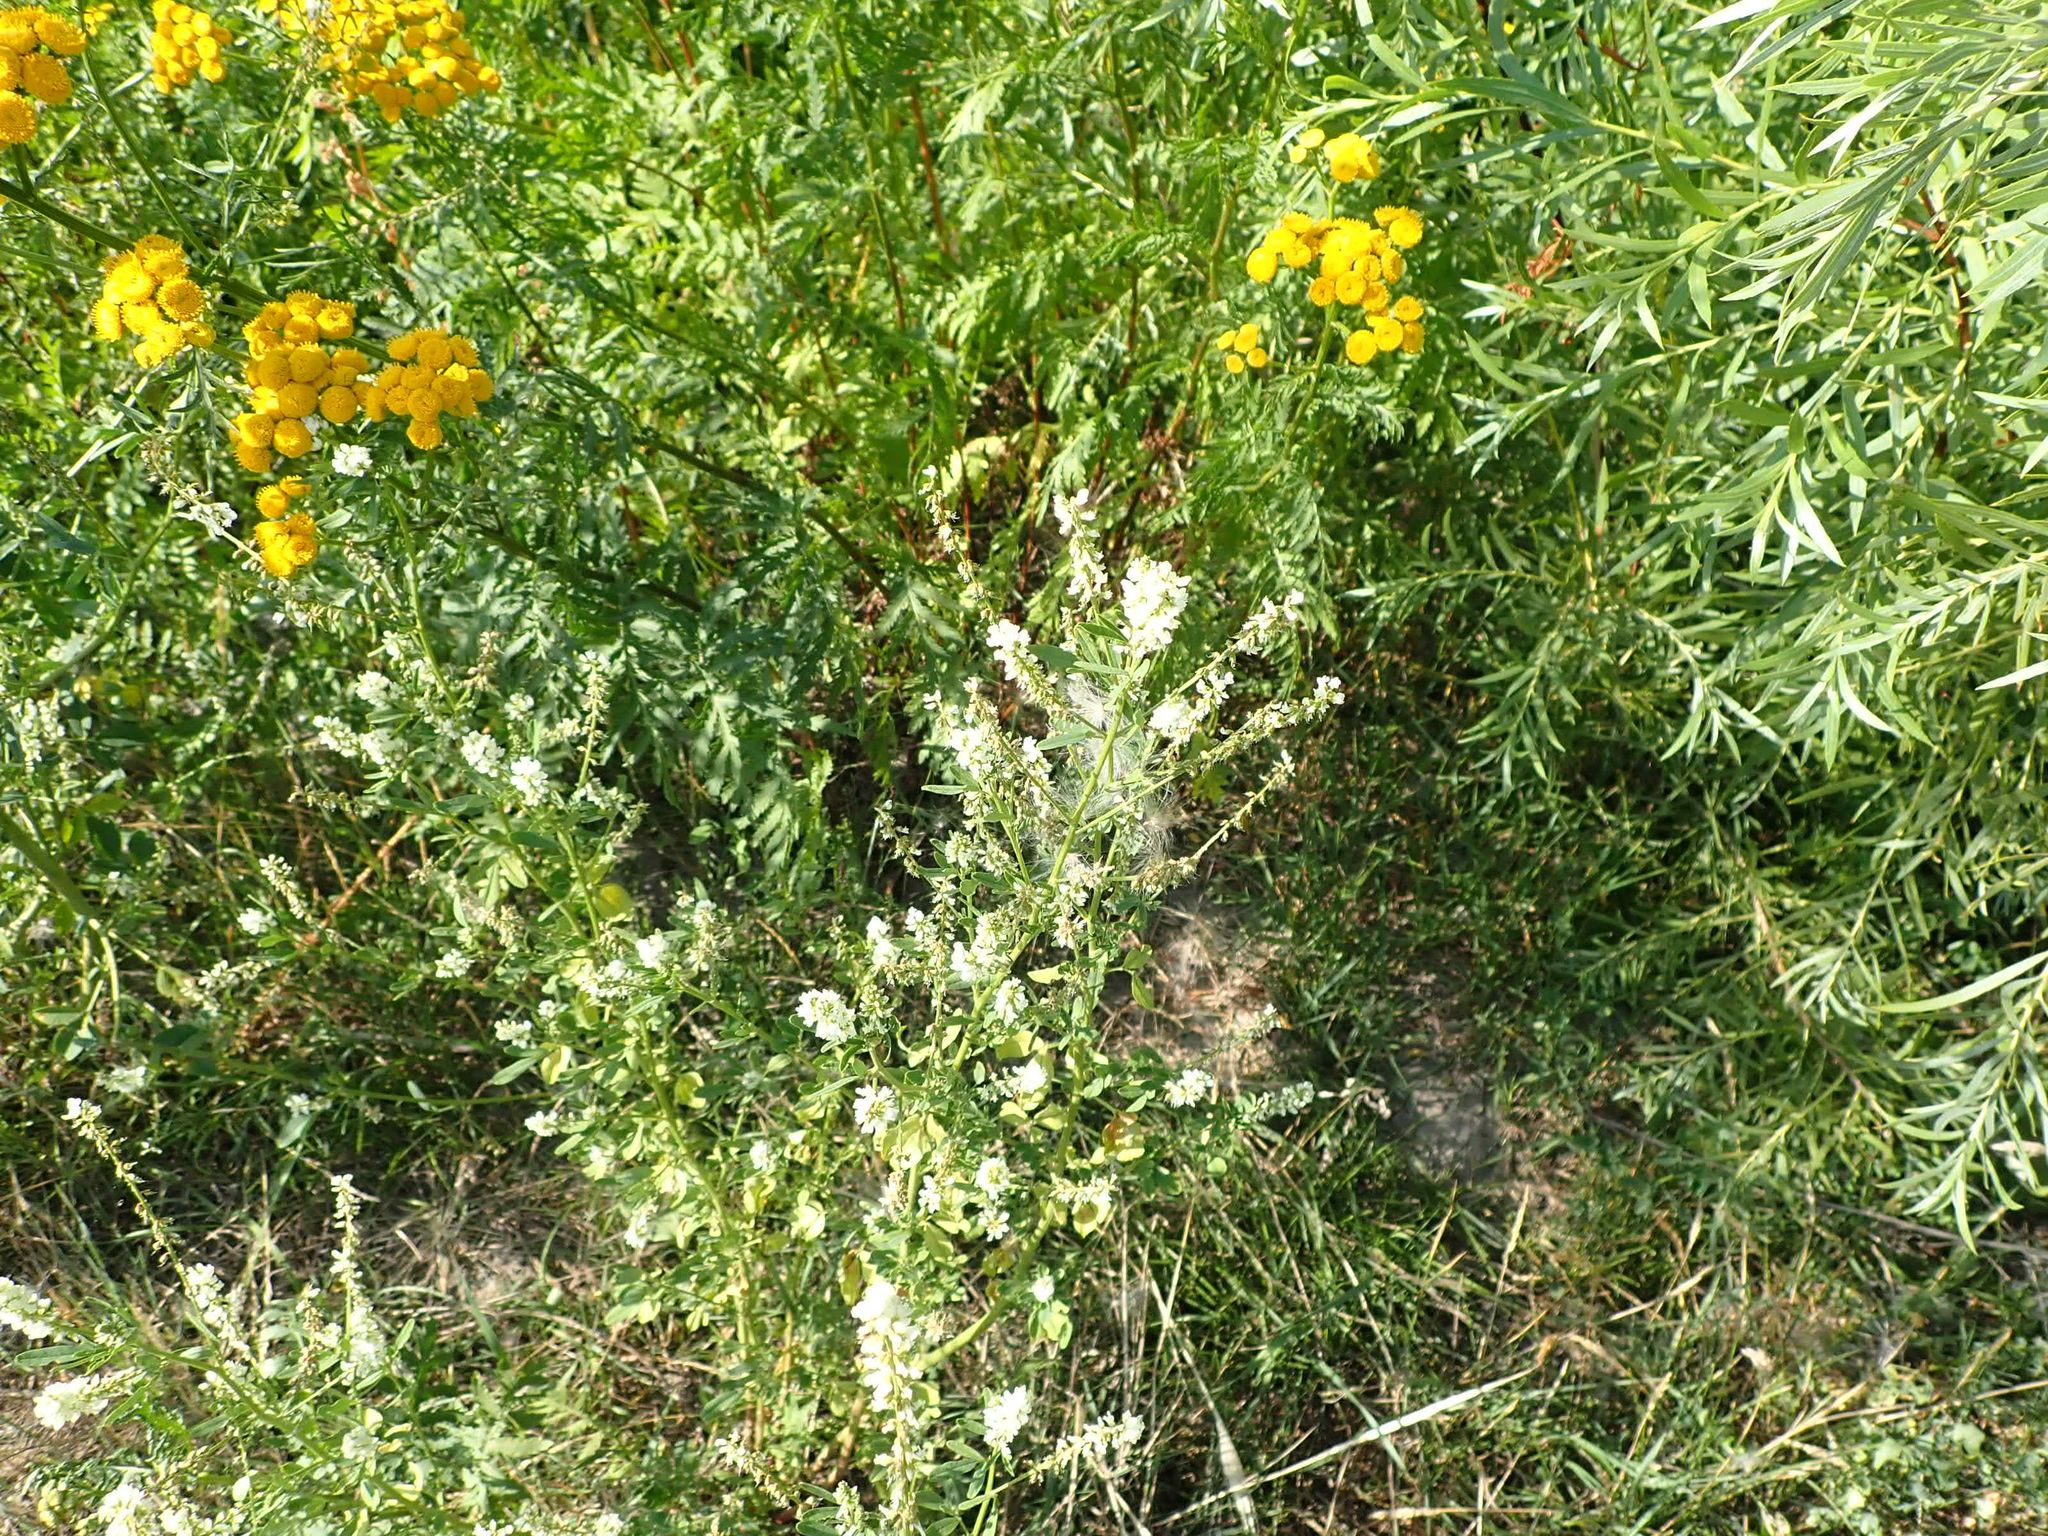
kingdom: Plantae
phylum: Tracheophyta
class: Magnoliopsida
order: Fabales
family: Fabaceae
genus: Melilotus
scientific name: Melilotus albus
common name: White melilot
